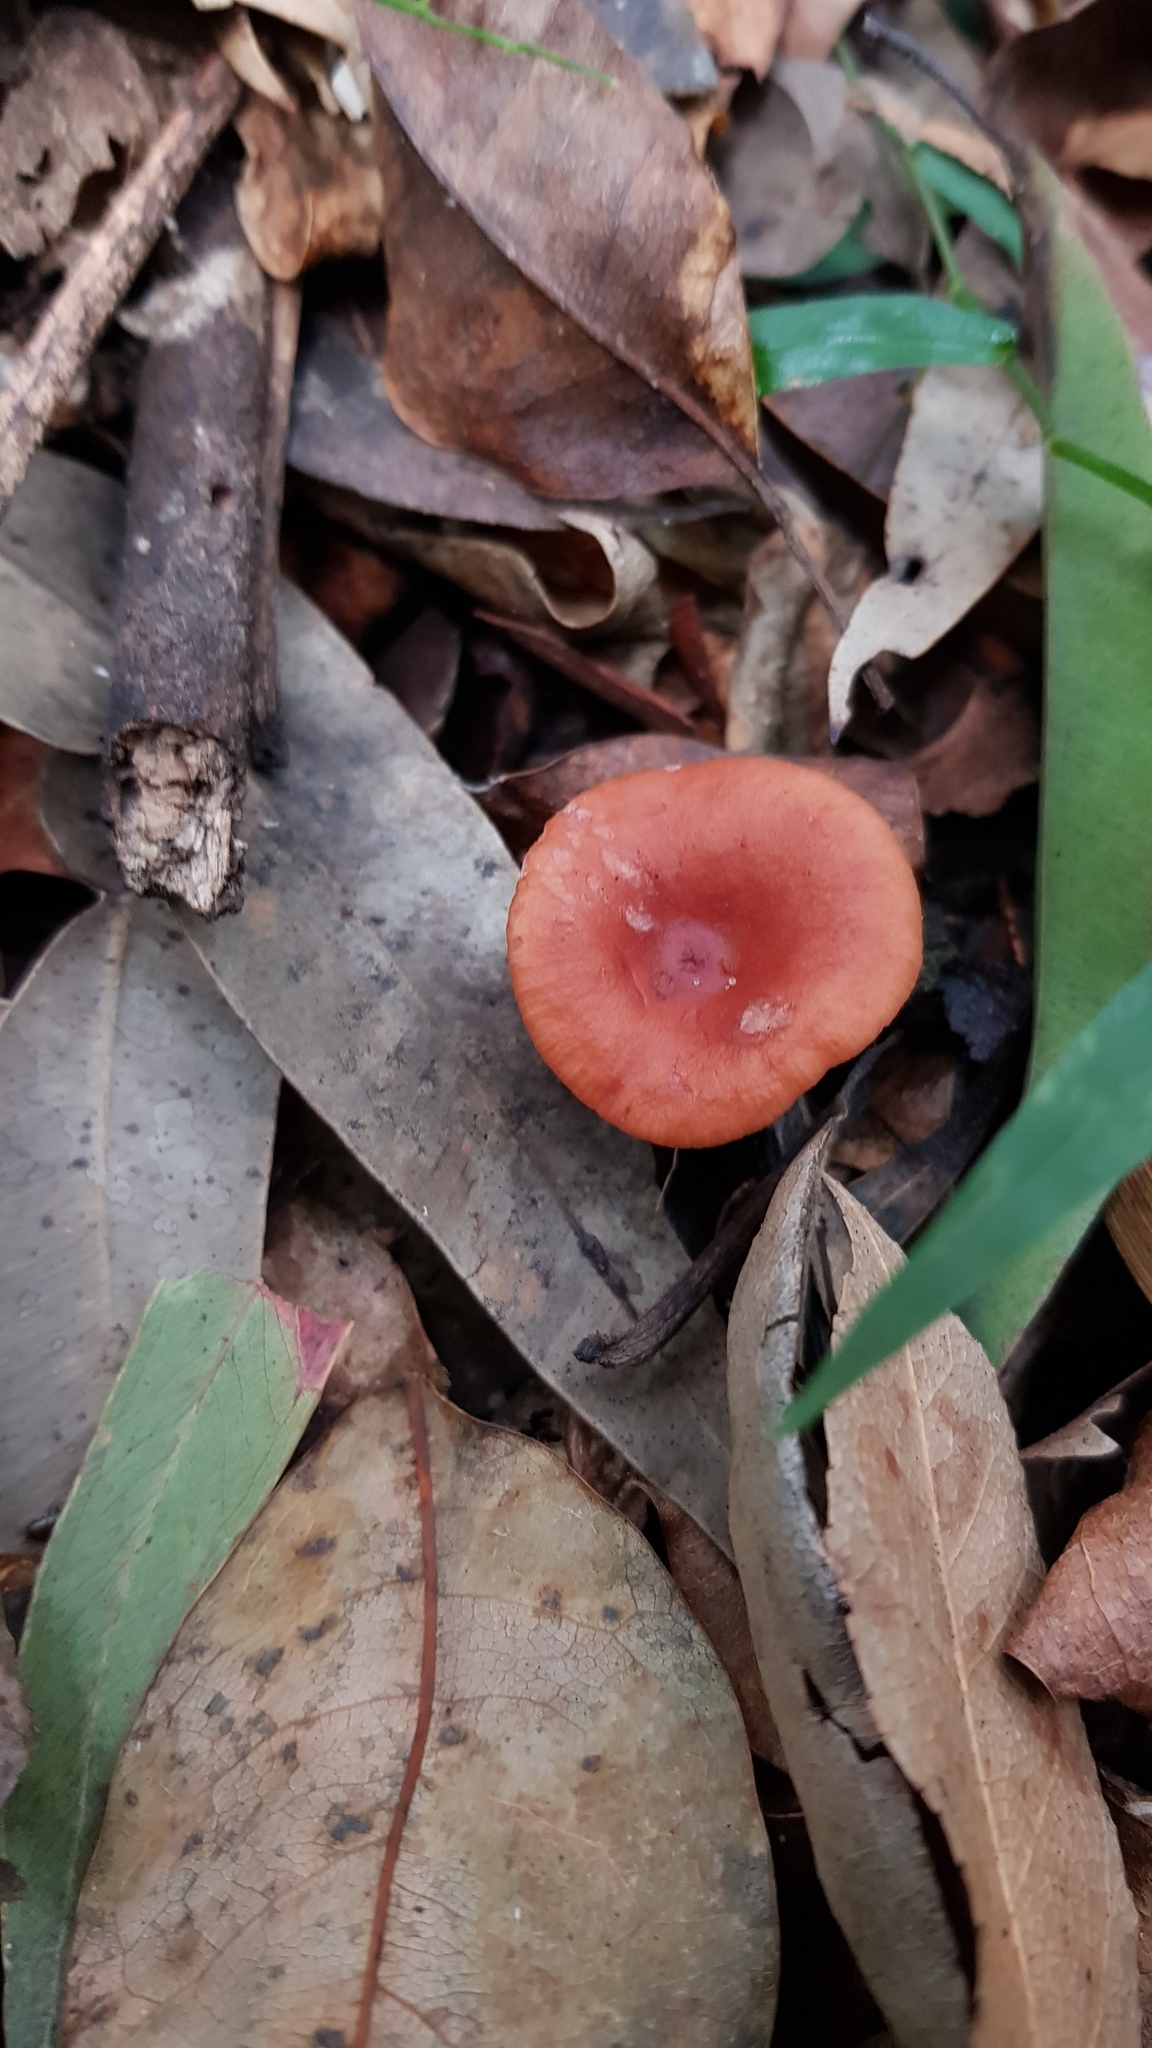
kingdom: Fungi
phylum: Basidiomycota
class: Agaricomycetes
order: Russulales
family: Russulaceae
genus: Lactarius
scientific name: Lactarius eucalypti
